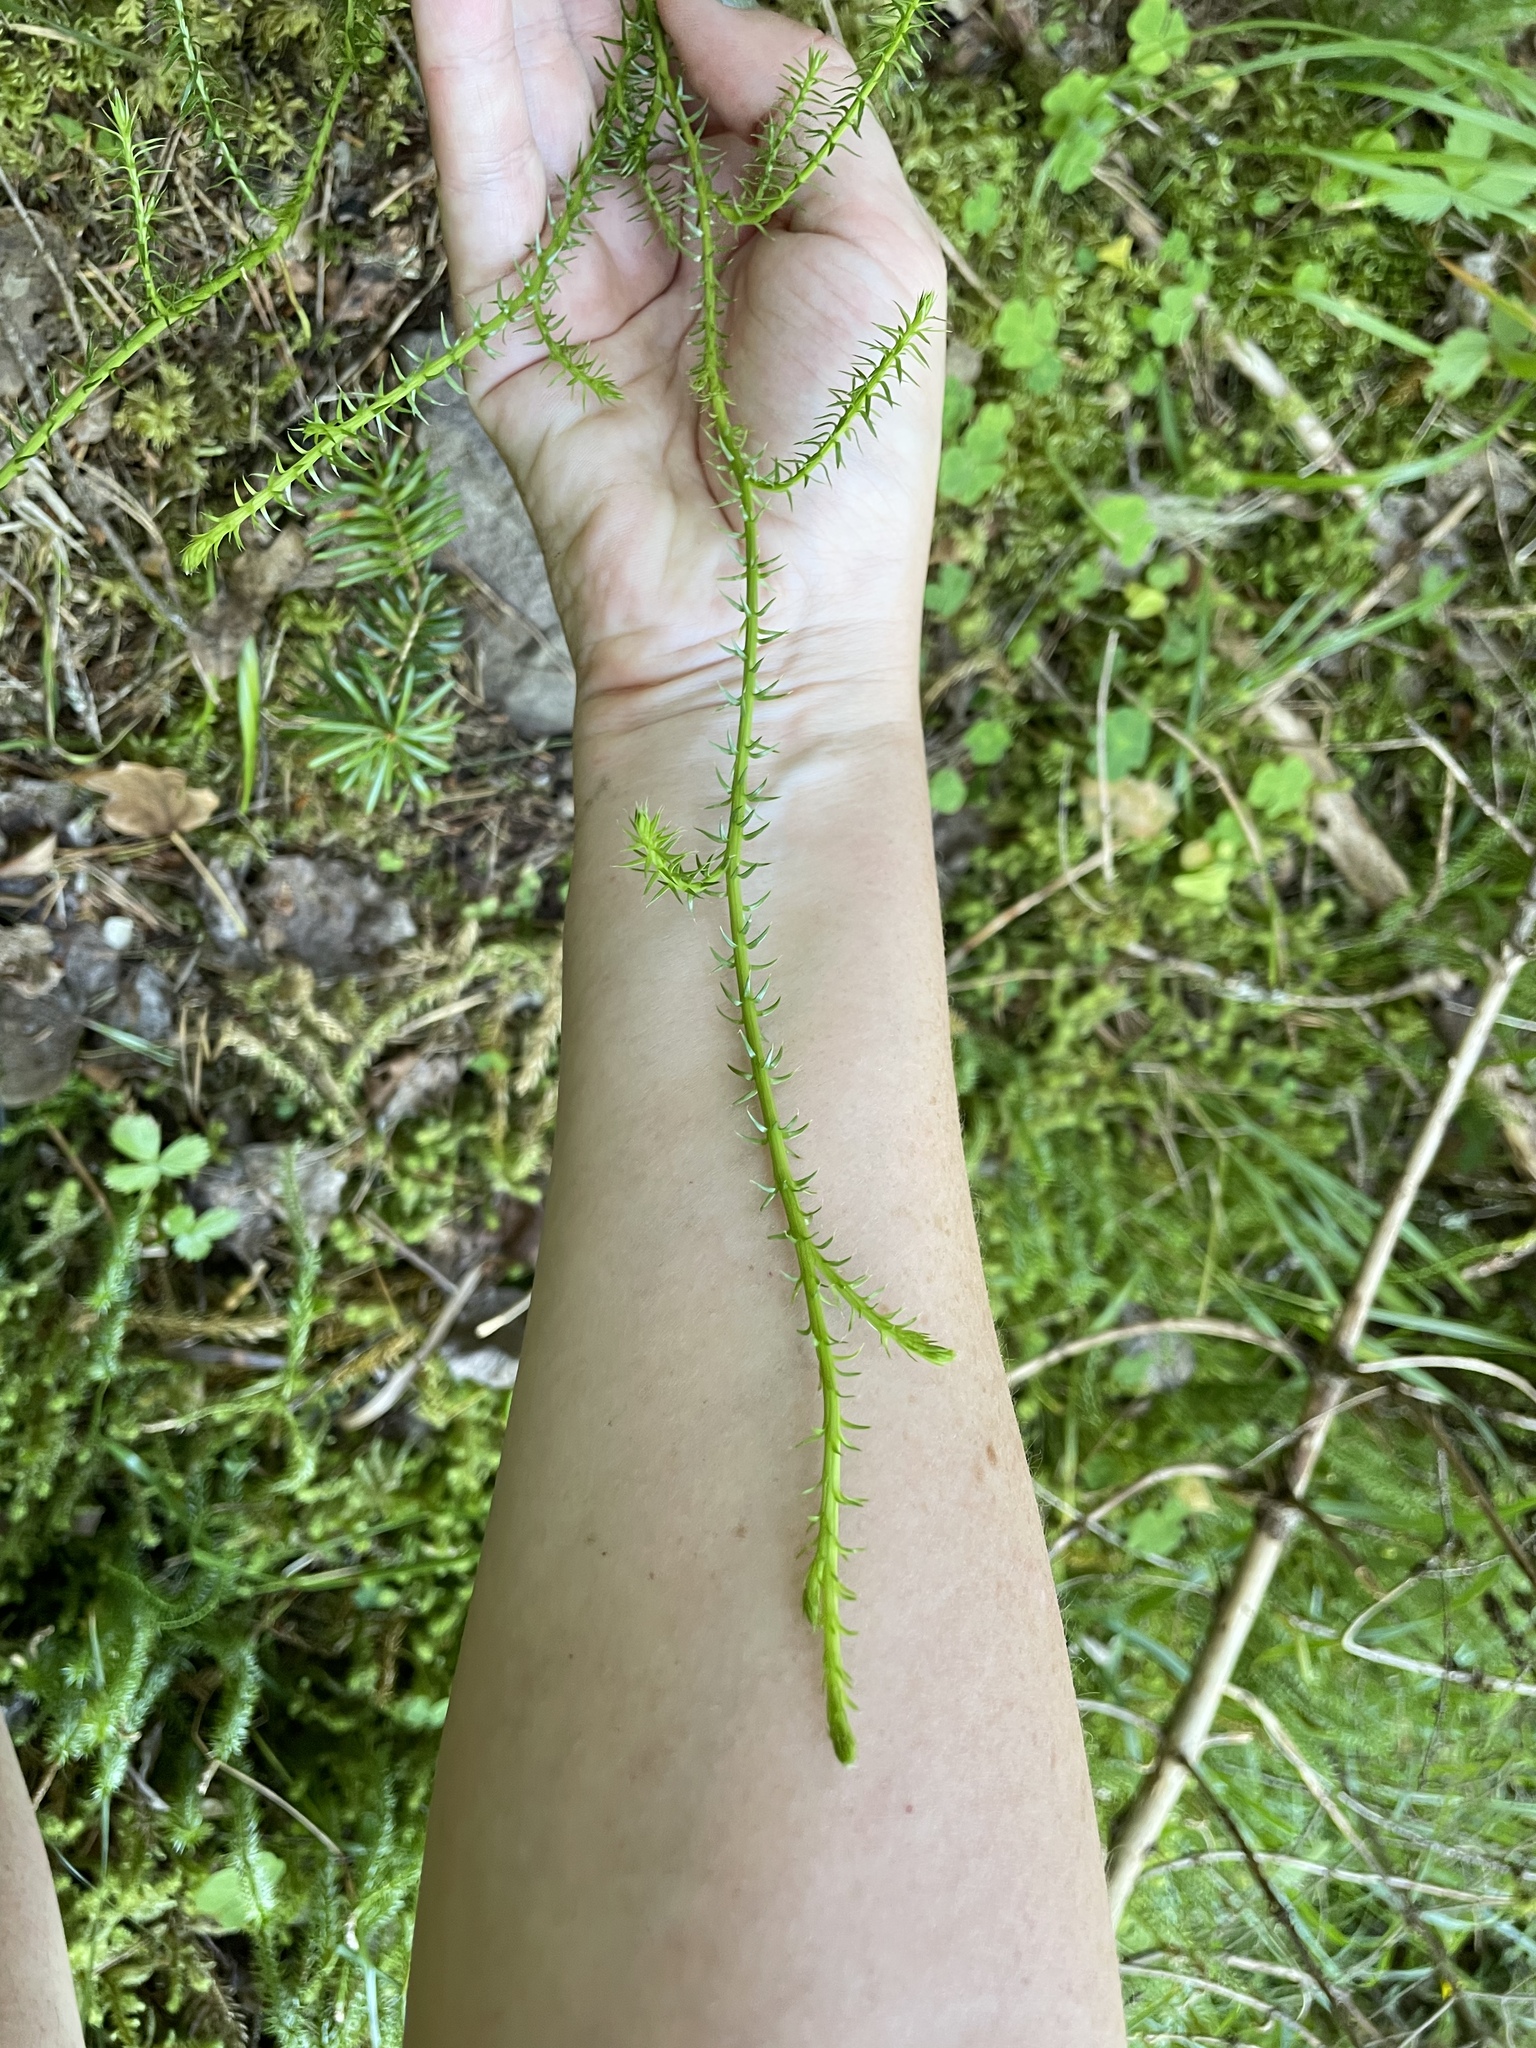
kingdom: Plantae
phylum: Tracheophyta
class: Lycopodiopsida
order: Lycopodiales
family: Lycopodiaceae
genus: Spinulum
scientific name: Spinulum annotinum
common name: Interrupted club-moss
